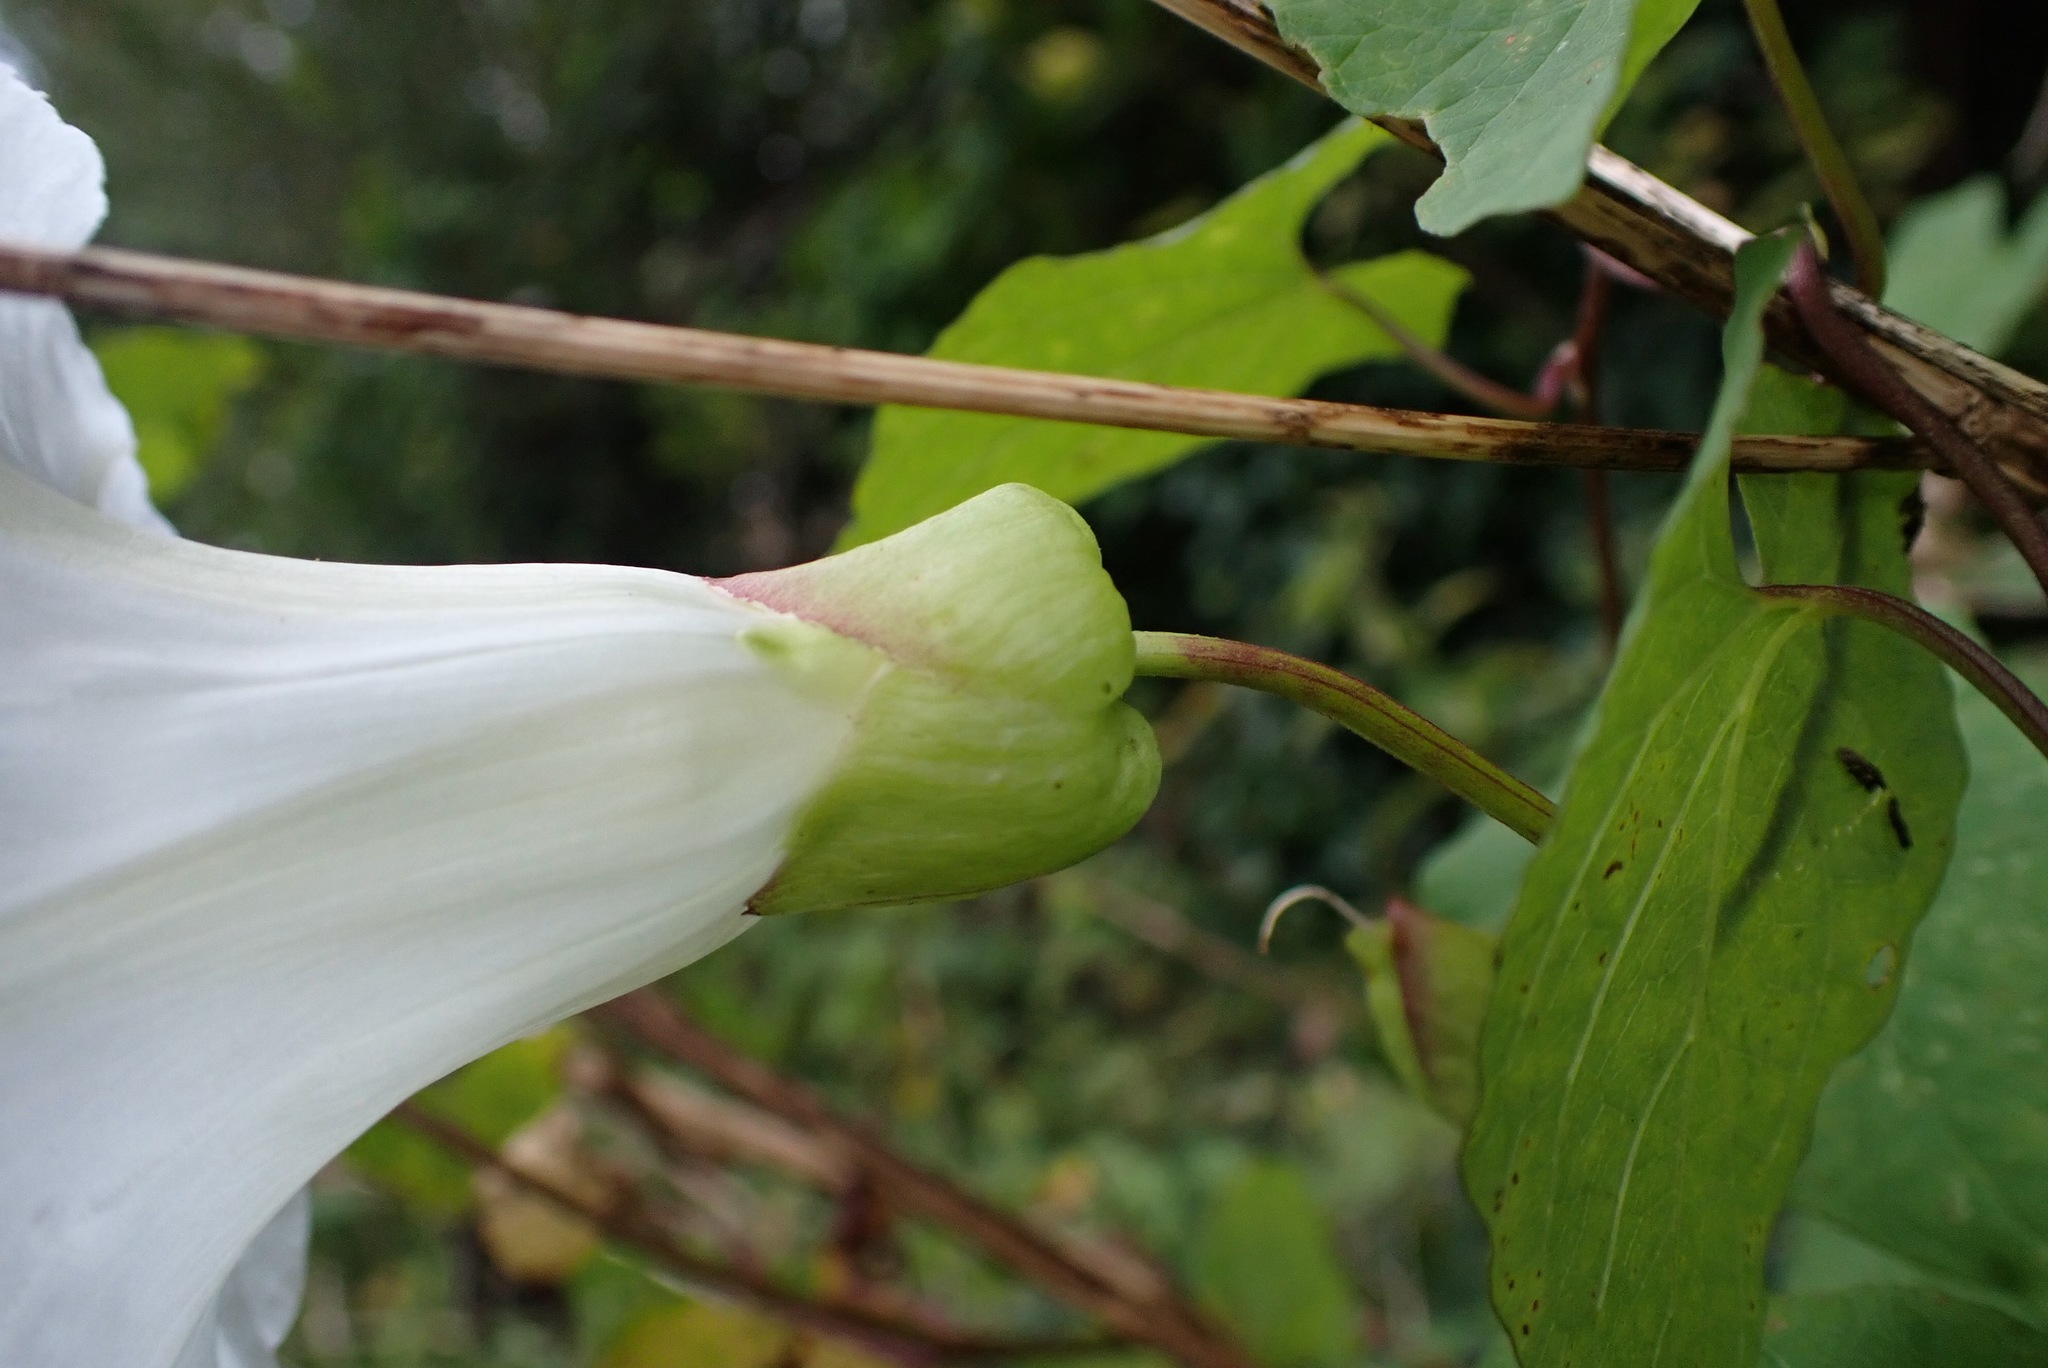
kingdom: Plantae
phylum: Tracheophyta
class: Magnoliopsida
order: Solanales
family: Convolvulaceae
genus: Calystegia
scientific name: Calystegia silvatica
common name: Large bindweed
